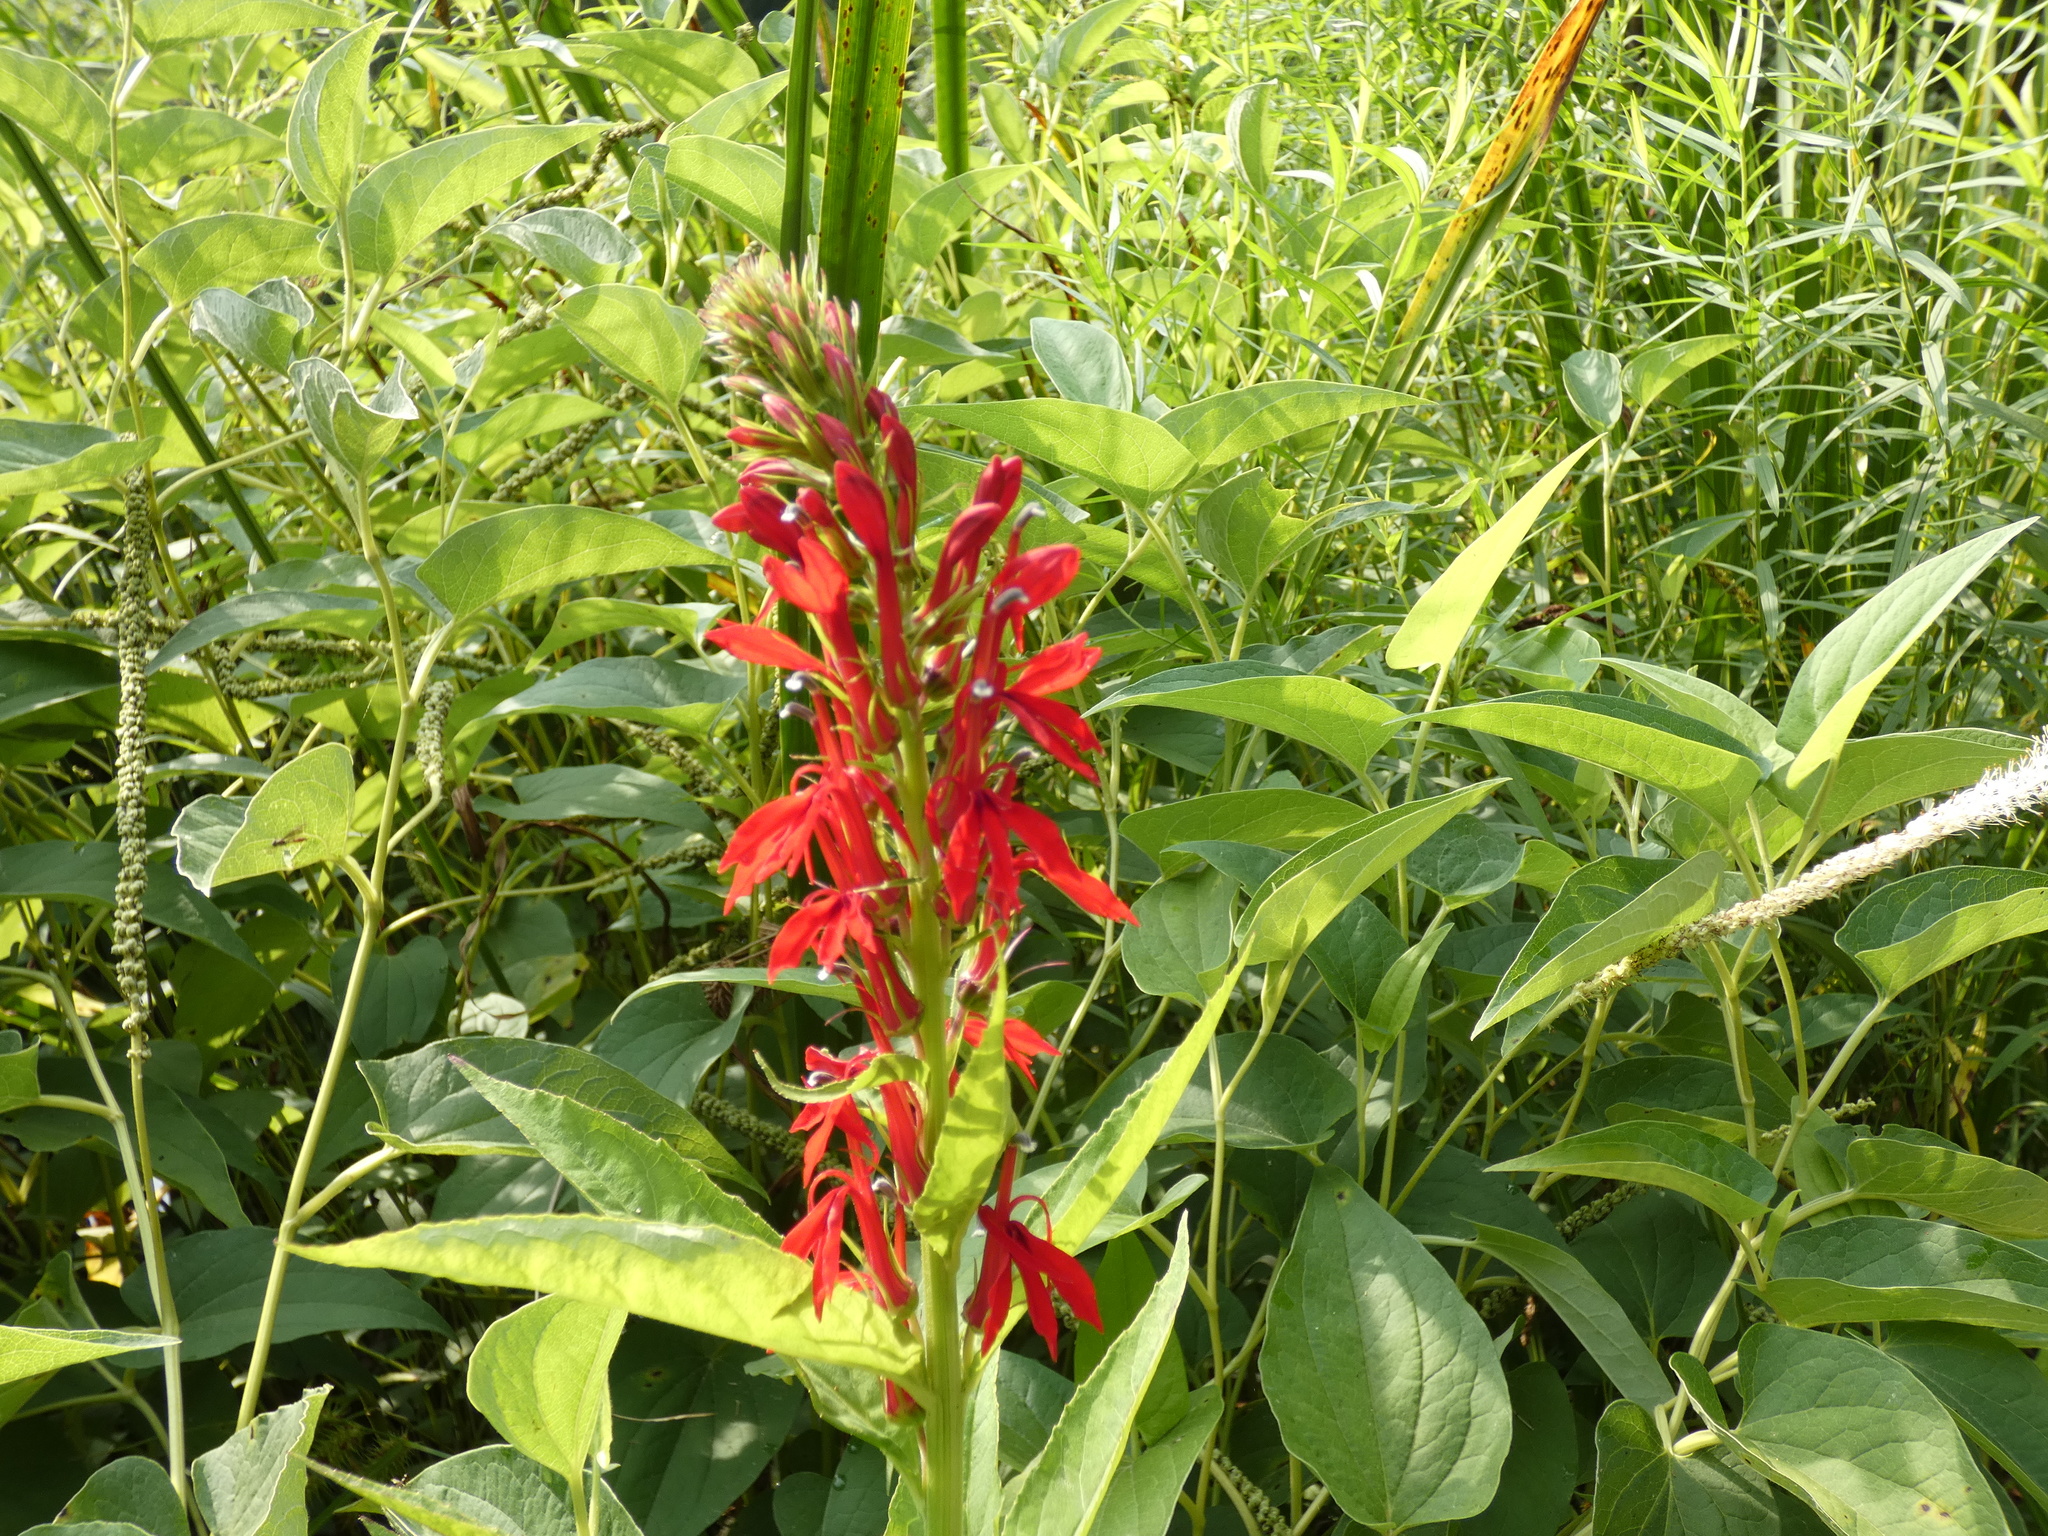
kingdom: Plantae
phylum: Tracheophyta
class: Magnoliopsida
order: Asterales
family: Campanulaceae
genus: Lobelia
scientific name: Lobelia cardinalis
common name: Cardinal flower
